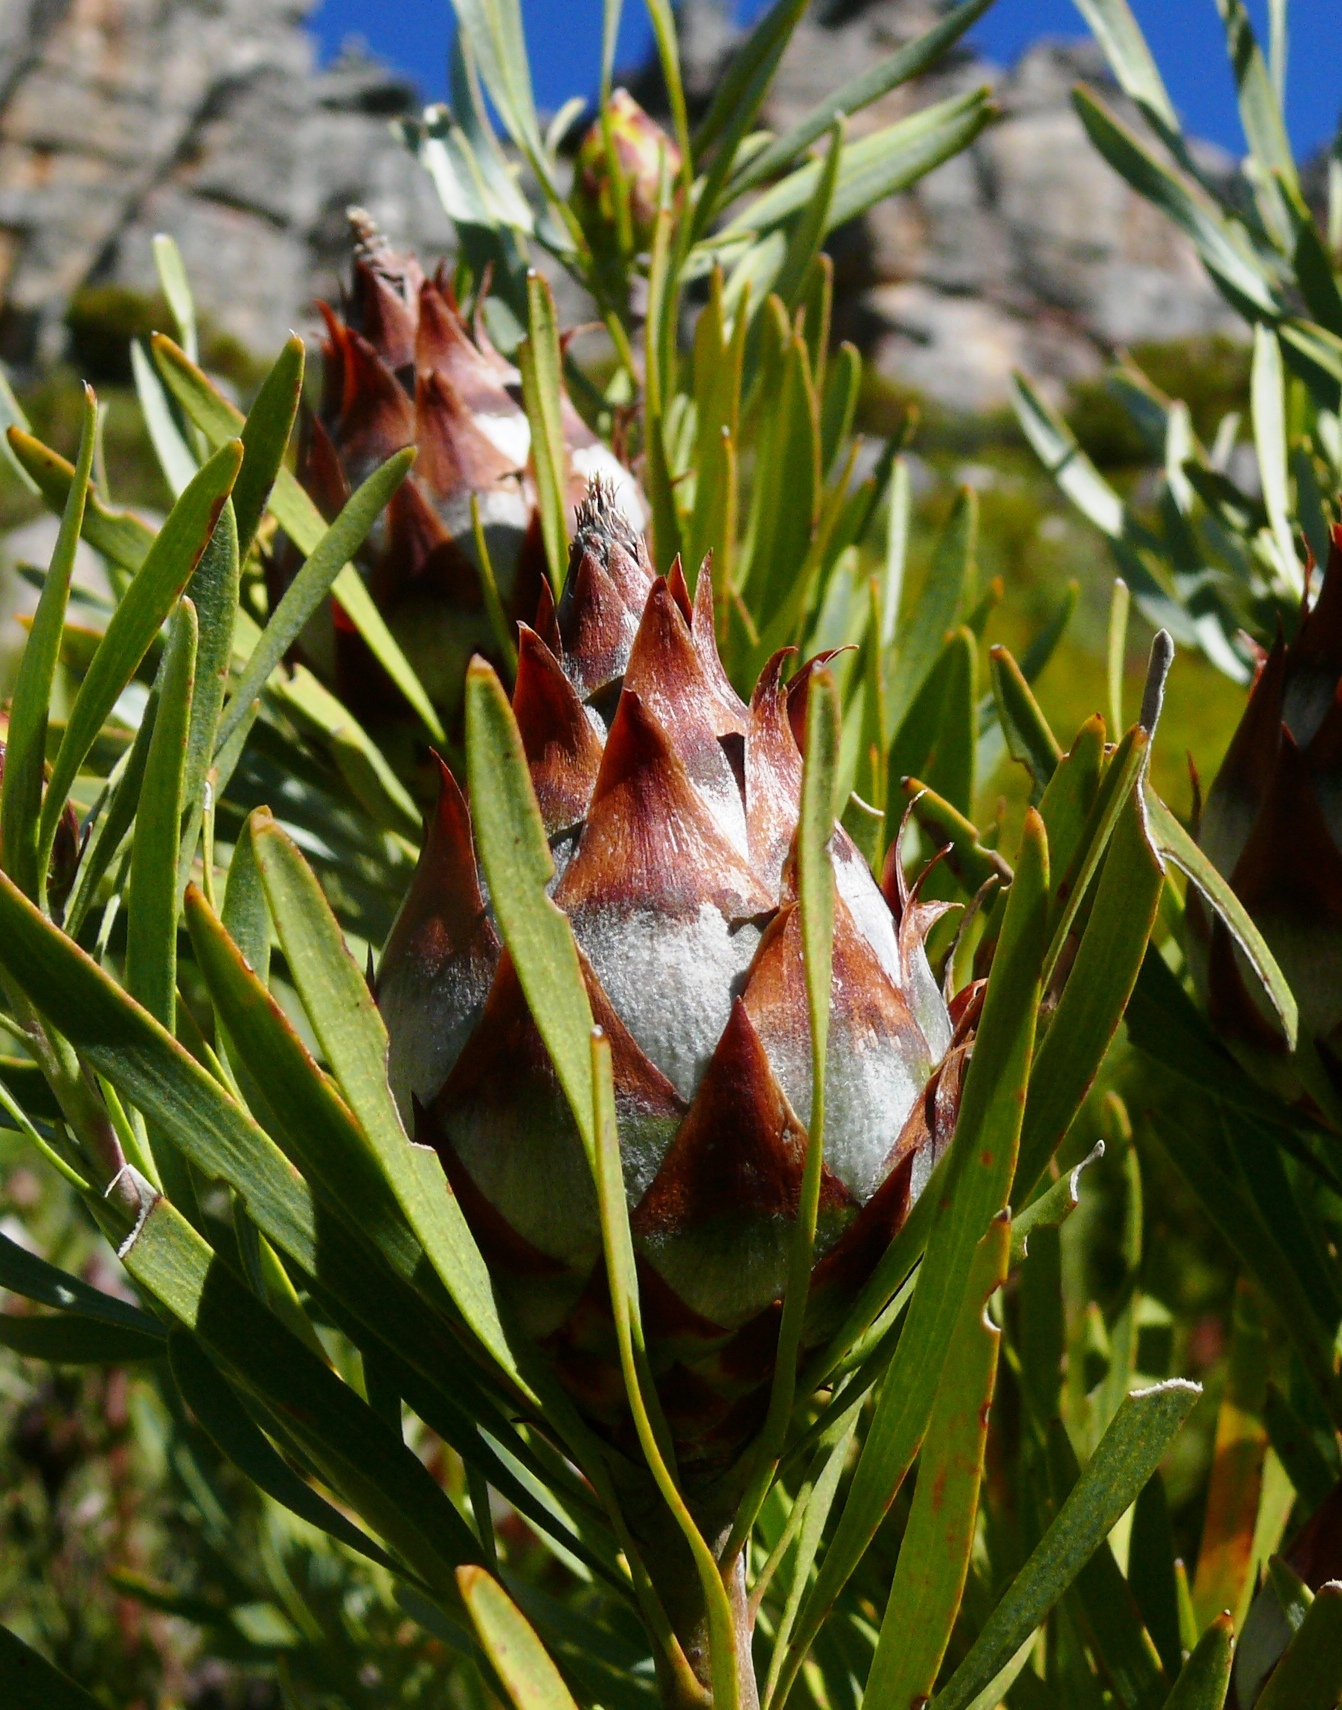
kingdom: Plantae
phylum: Tracheophyta
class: Magnoliopsida
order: Proteales
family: Proteaceae
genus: Leucadendron
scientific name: Leucadendron rubrum
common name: Spinning top
